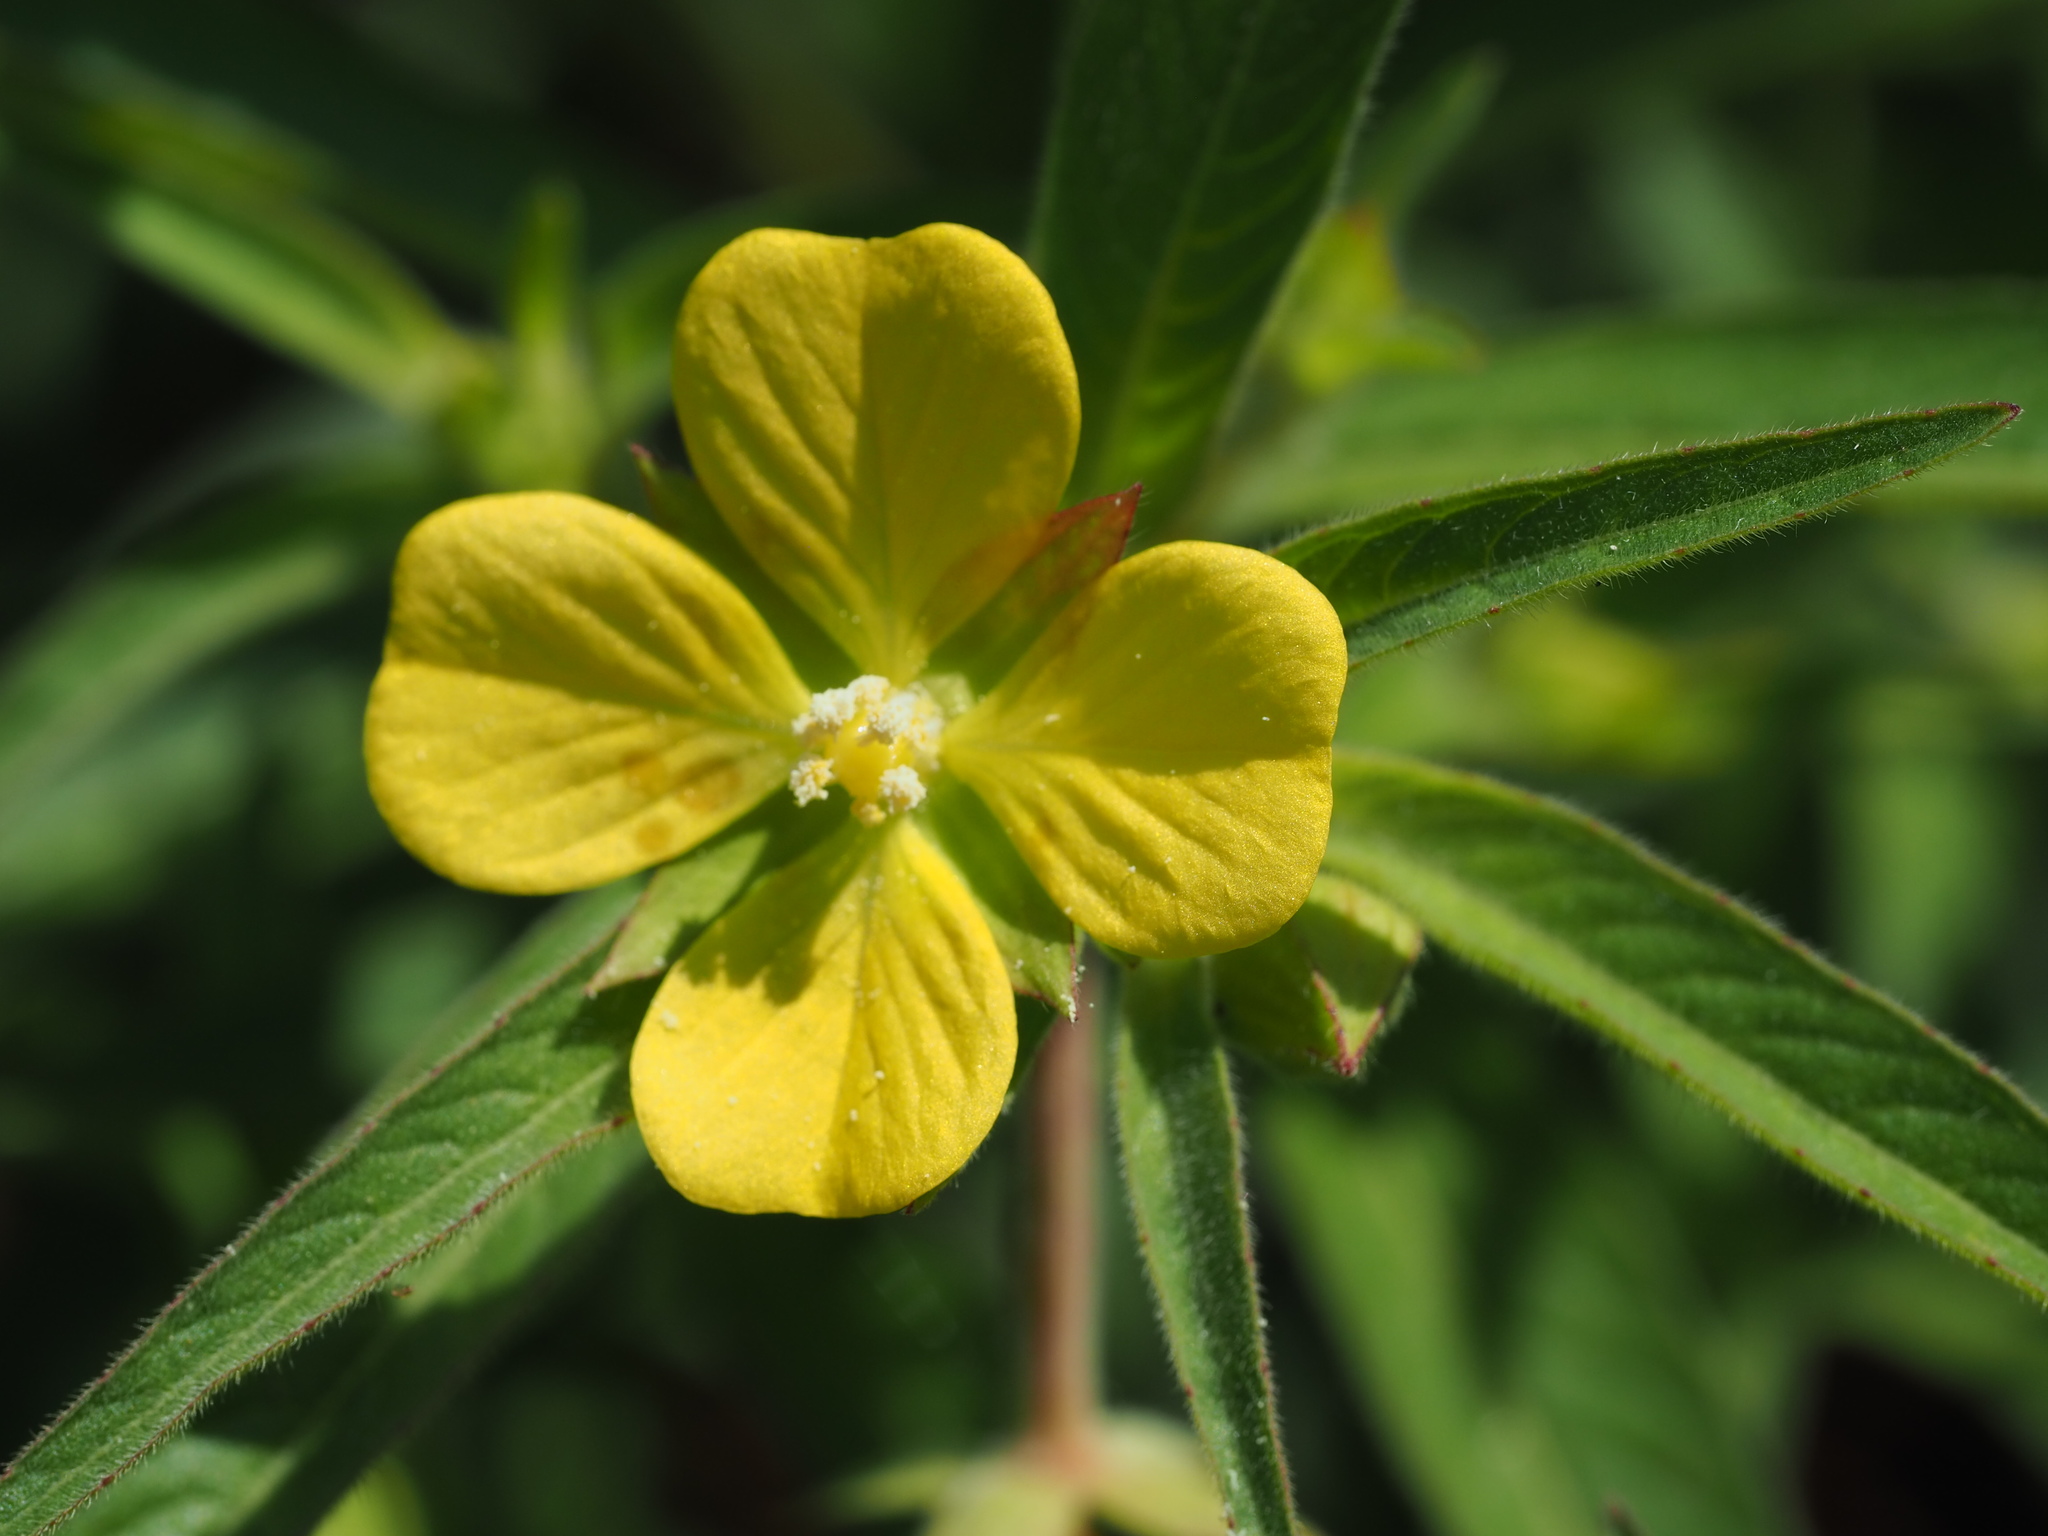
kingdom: Plantae
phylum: Tracheophyta
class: Magnoliopsida
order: Myrtales
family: Onagraceae
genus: Ludwigia
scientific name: Ludwigia octovalvis
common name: Water-primrose
